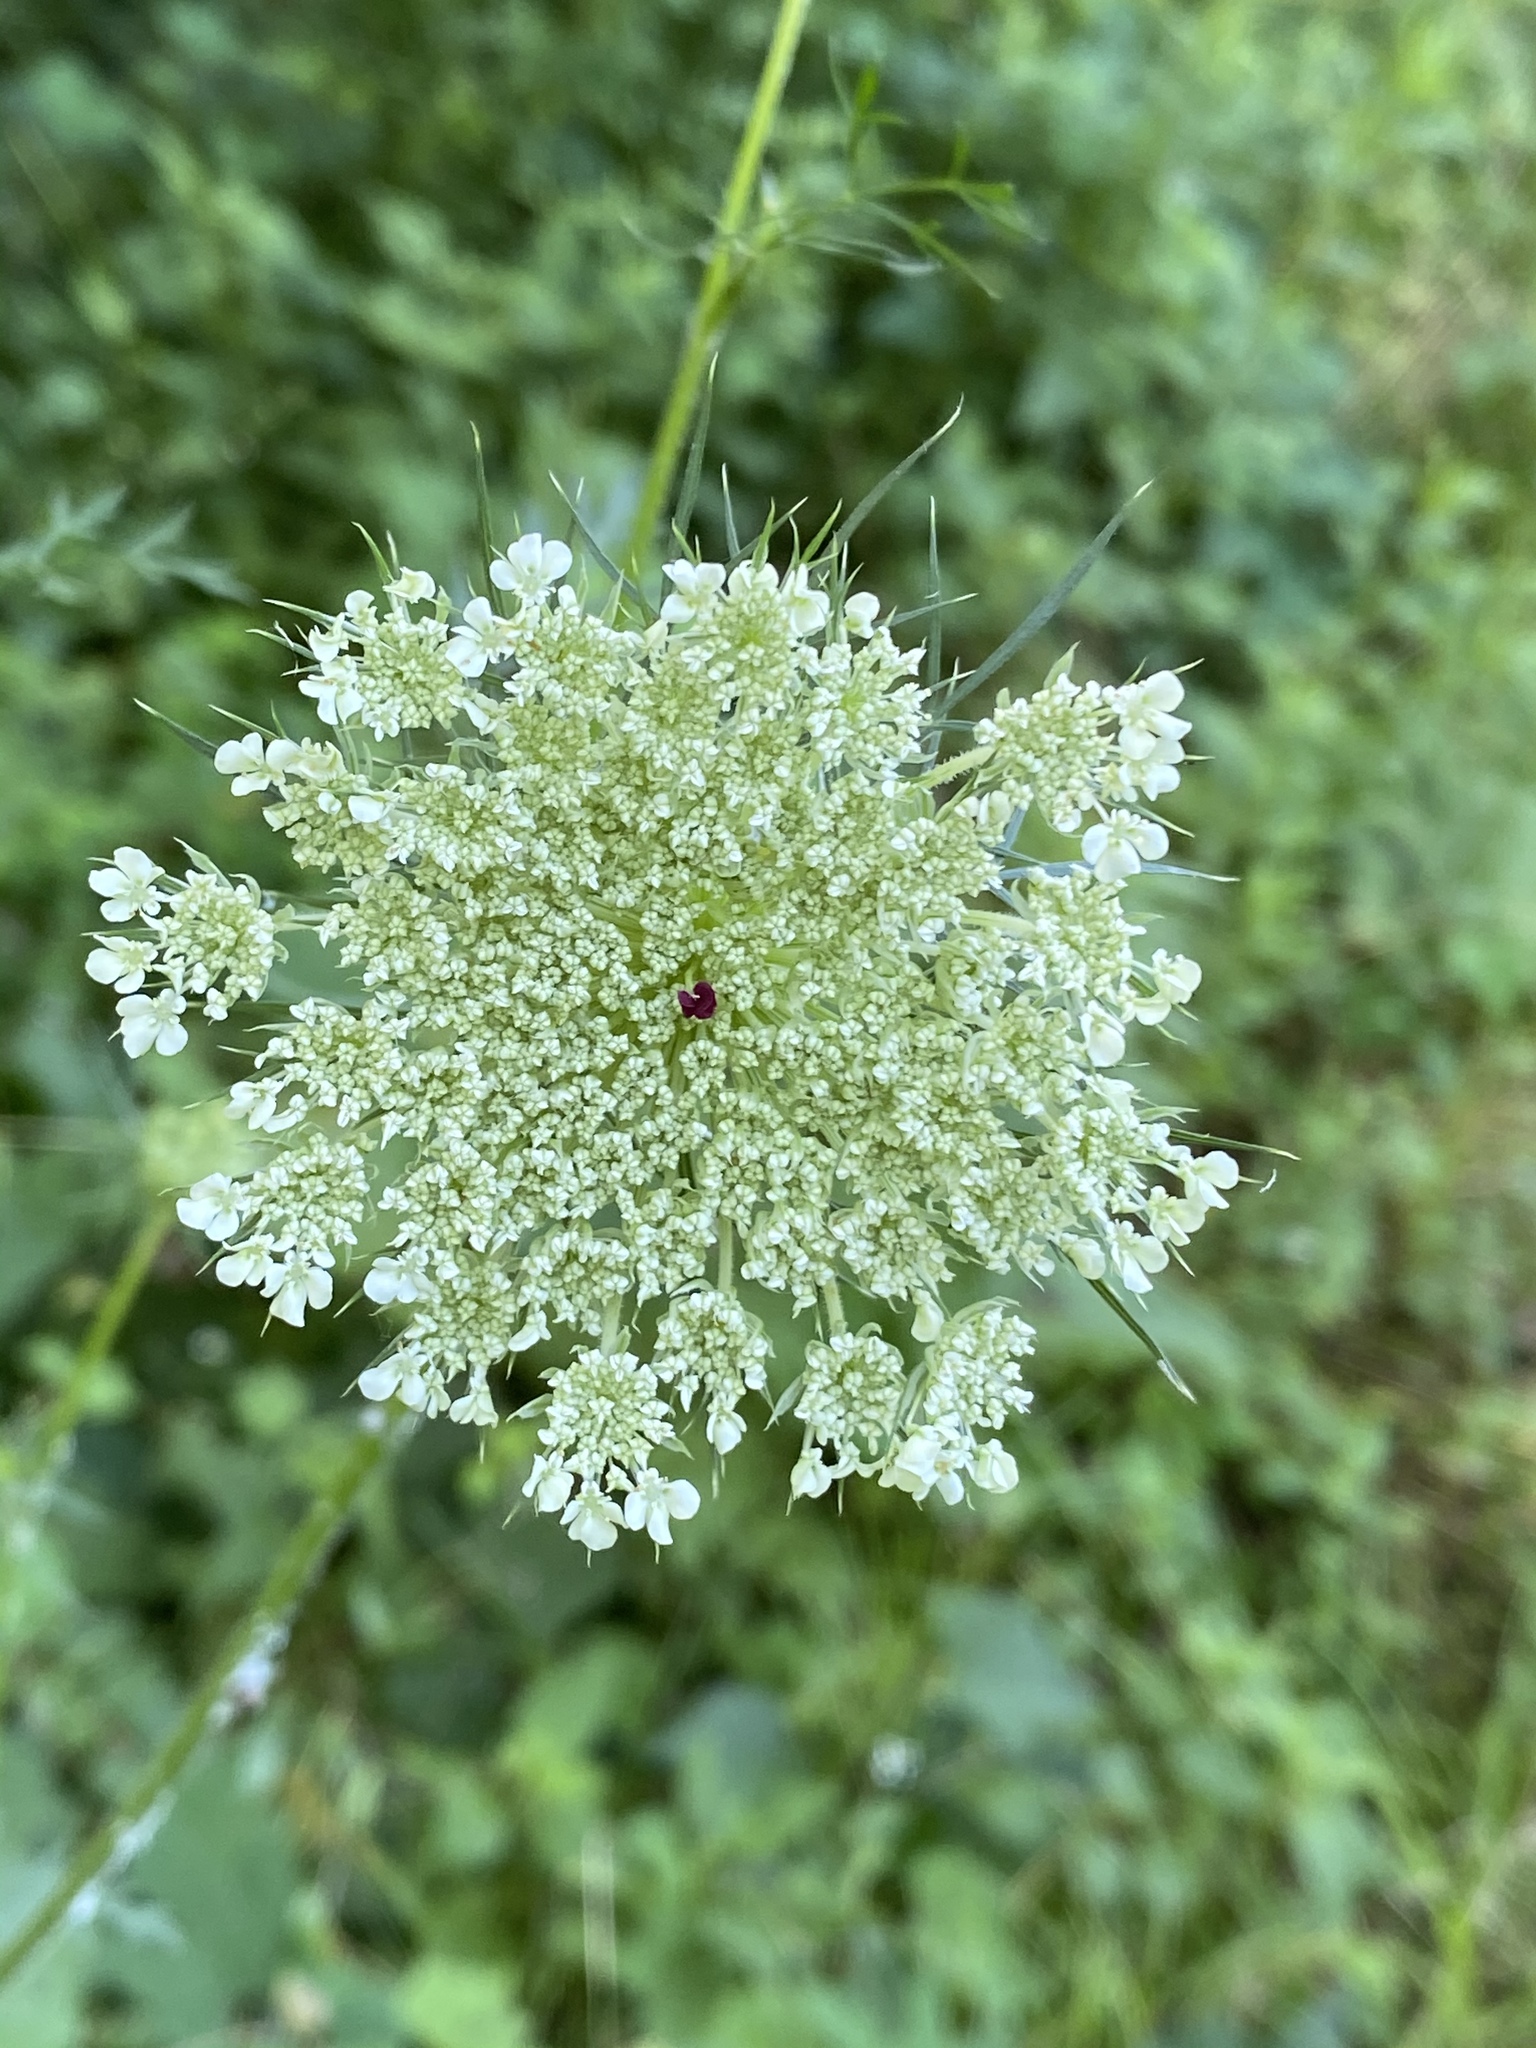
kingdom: Plantae
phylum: Tracheophyta
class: Magnoliopsida
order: Apiales
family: Apiaceae
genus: Daucus
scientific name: Daucus carota
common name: Wild carrot
